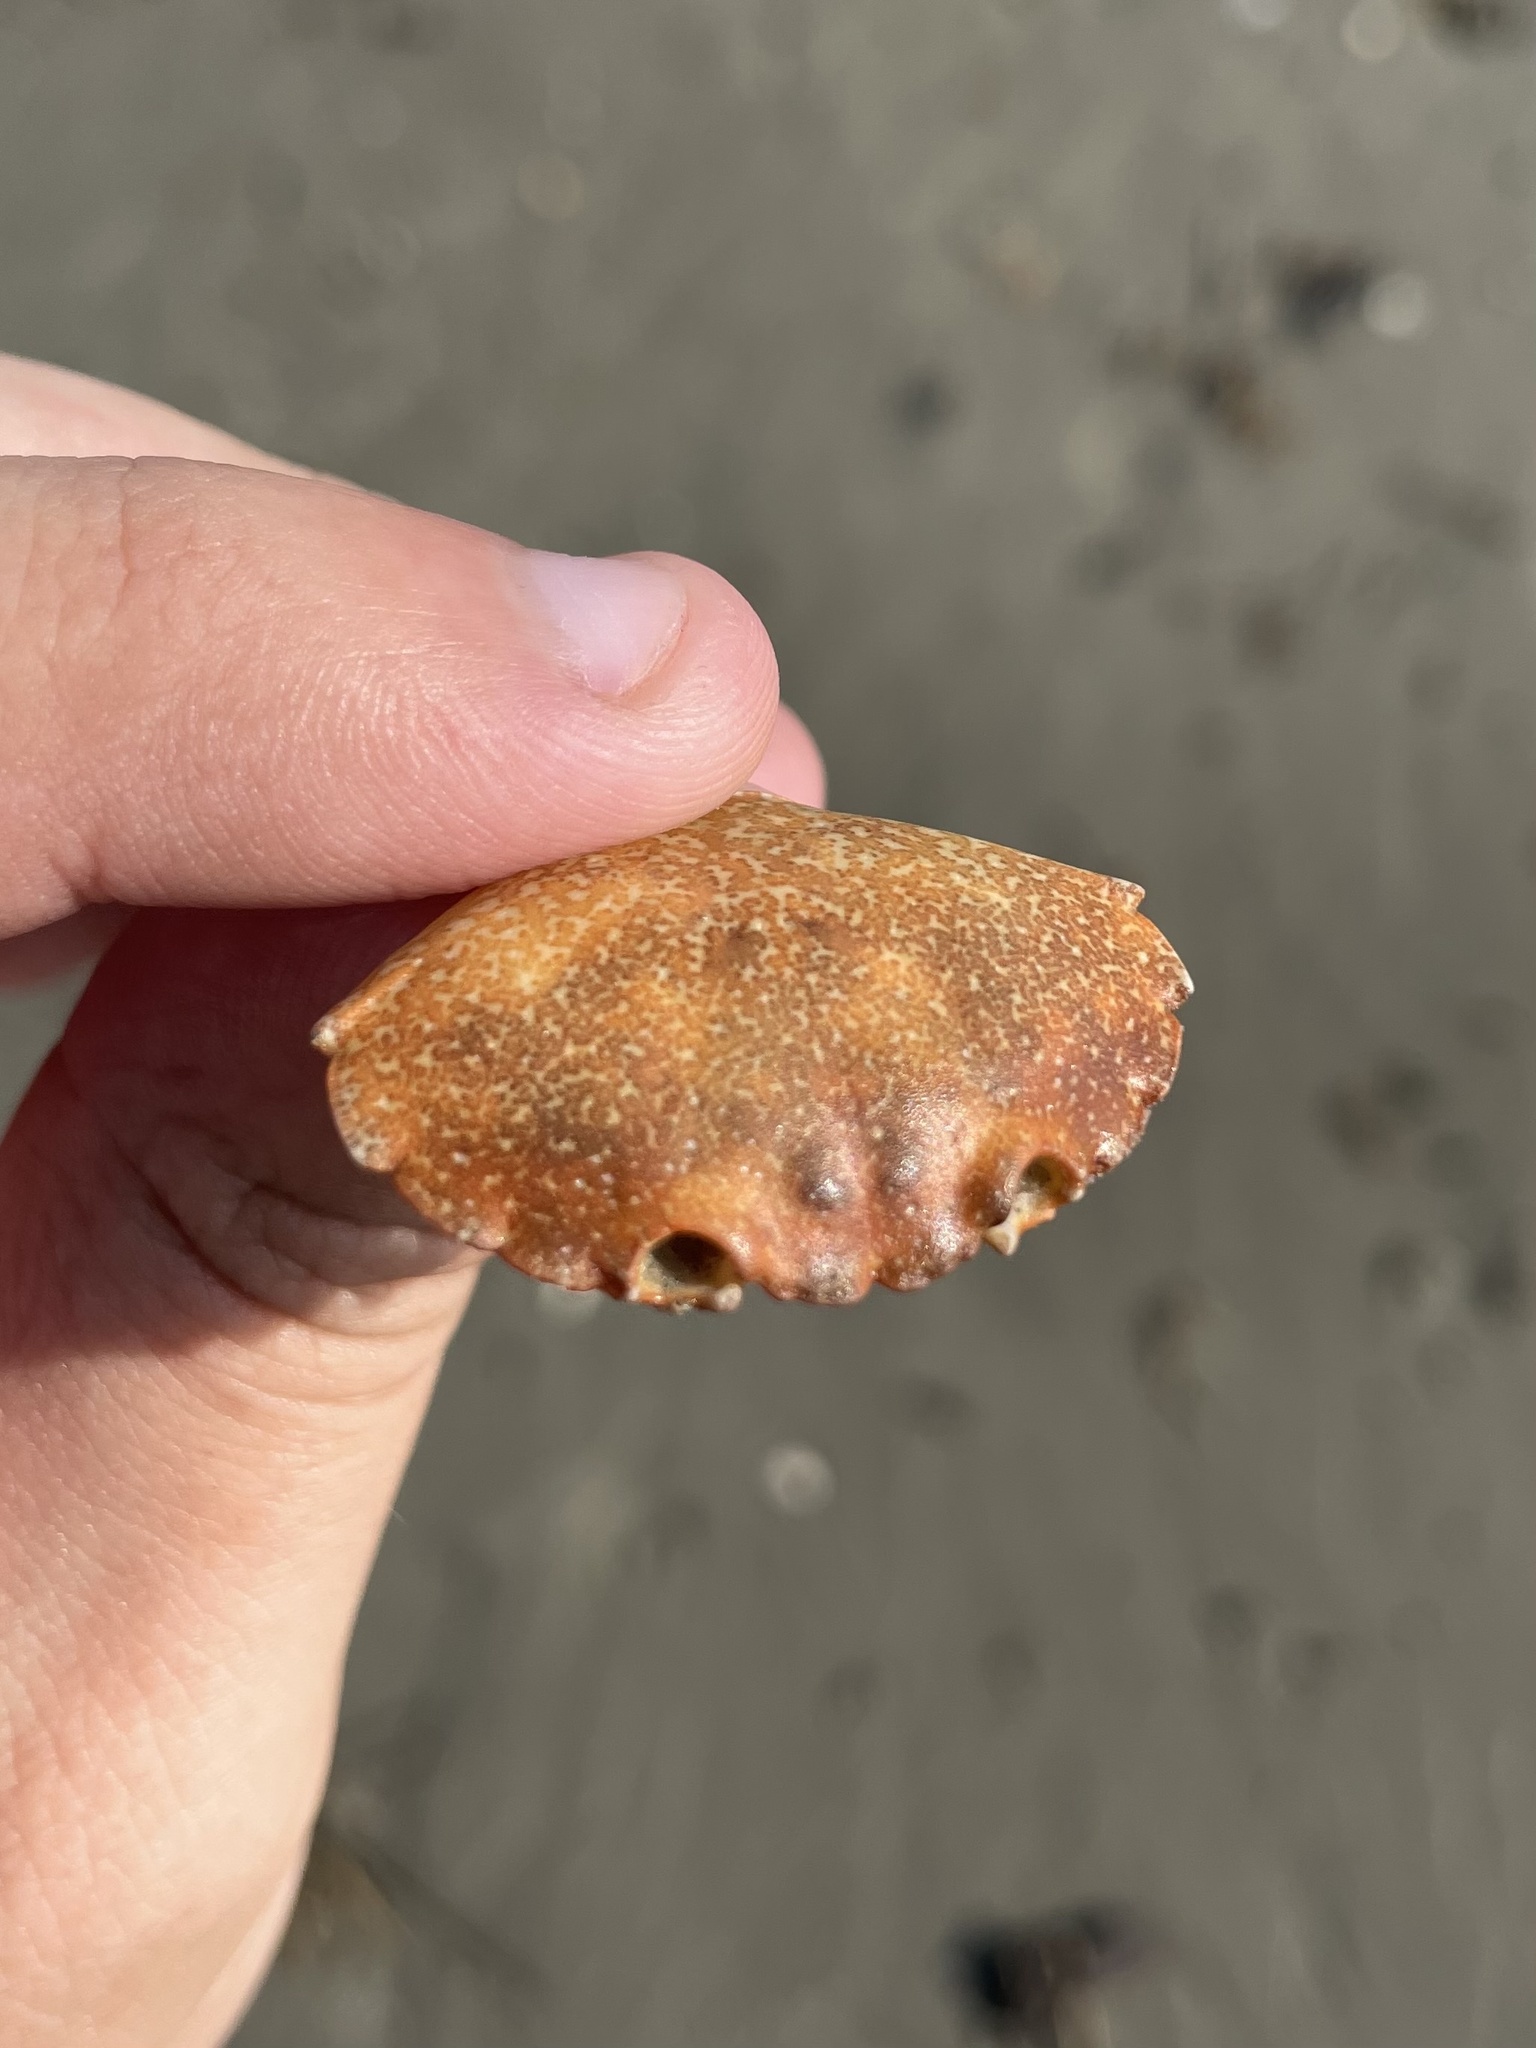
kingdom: Animalia
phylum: Arthropoda
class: Malacostraca
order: Decapoda
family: Menippidae
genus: Menippe
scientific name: Menippe adina
